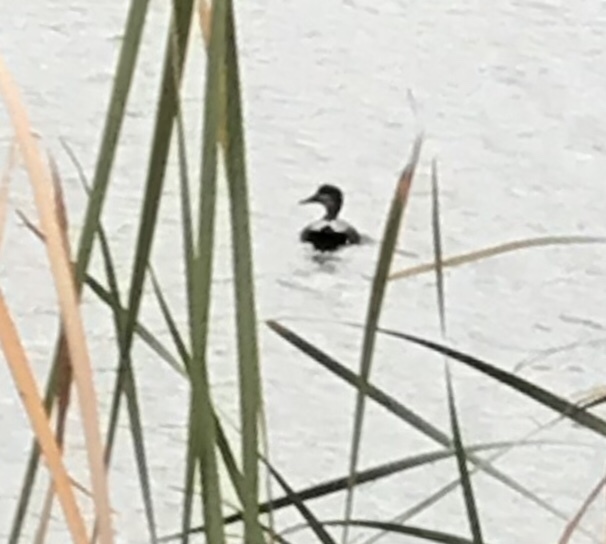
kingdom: Animalia
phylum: Chordata
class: Aves
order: Anseriformes
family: Anatidae
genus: Mareca
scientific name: Mareca strepera
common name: Gadwall
